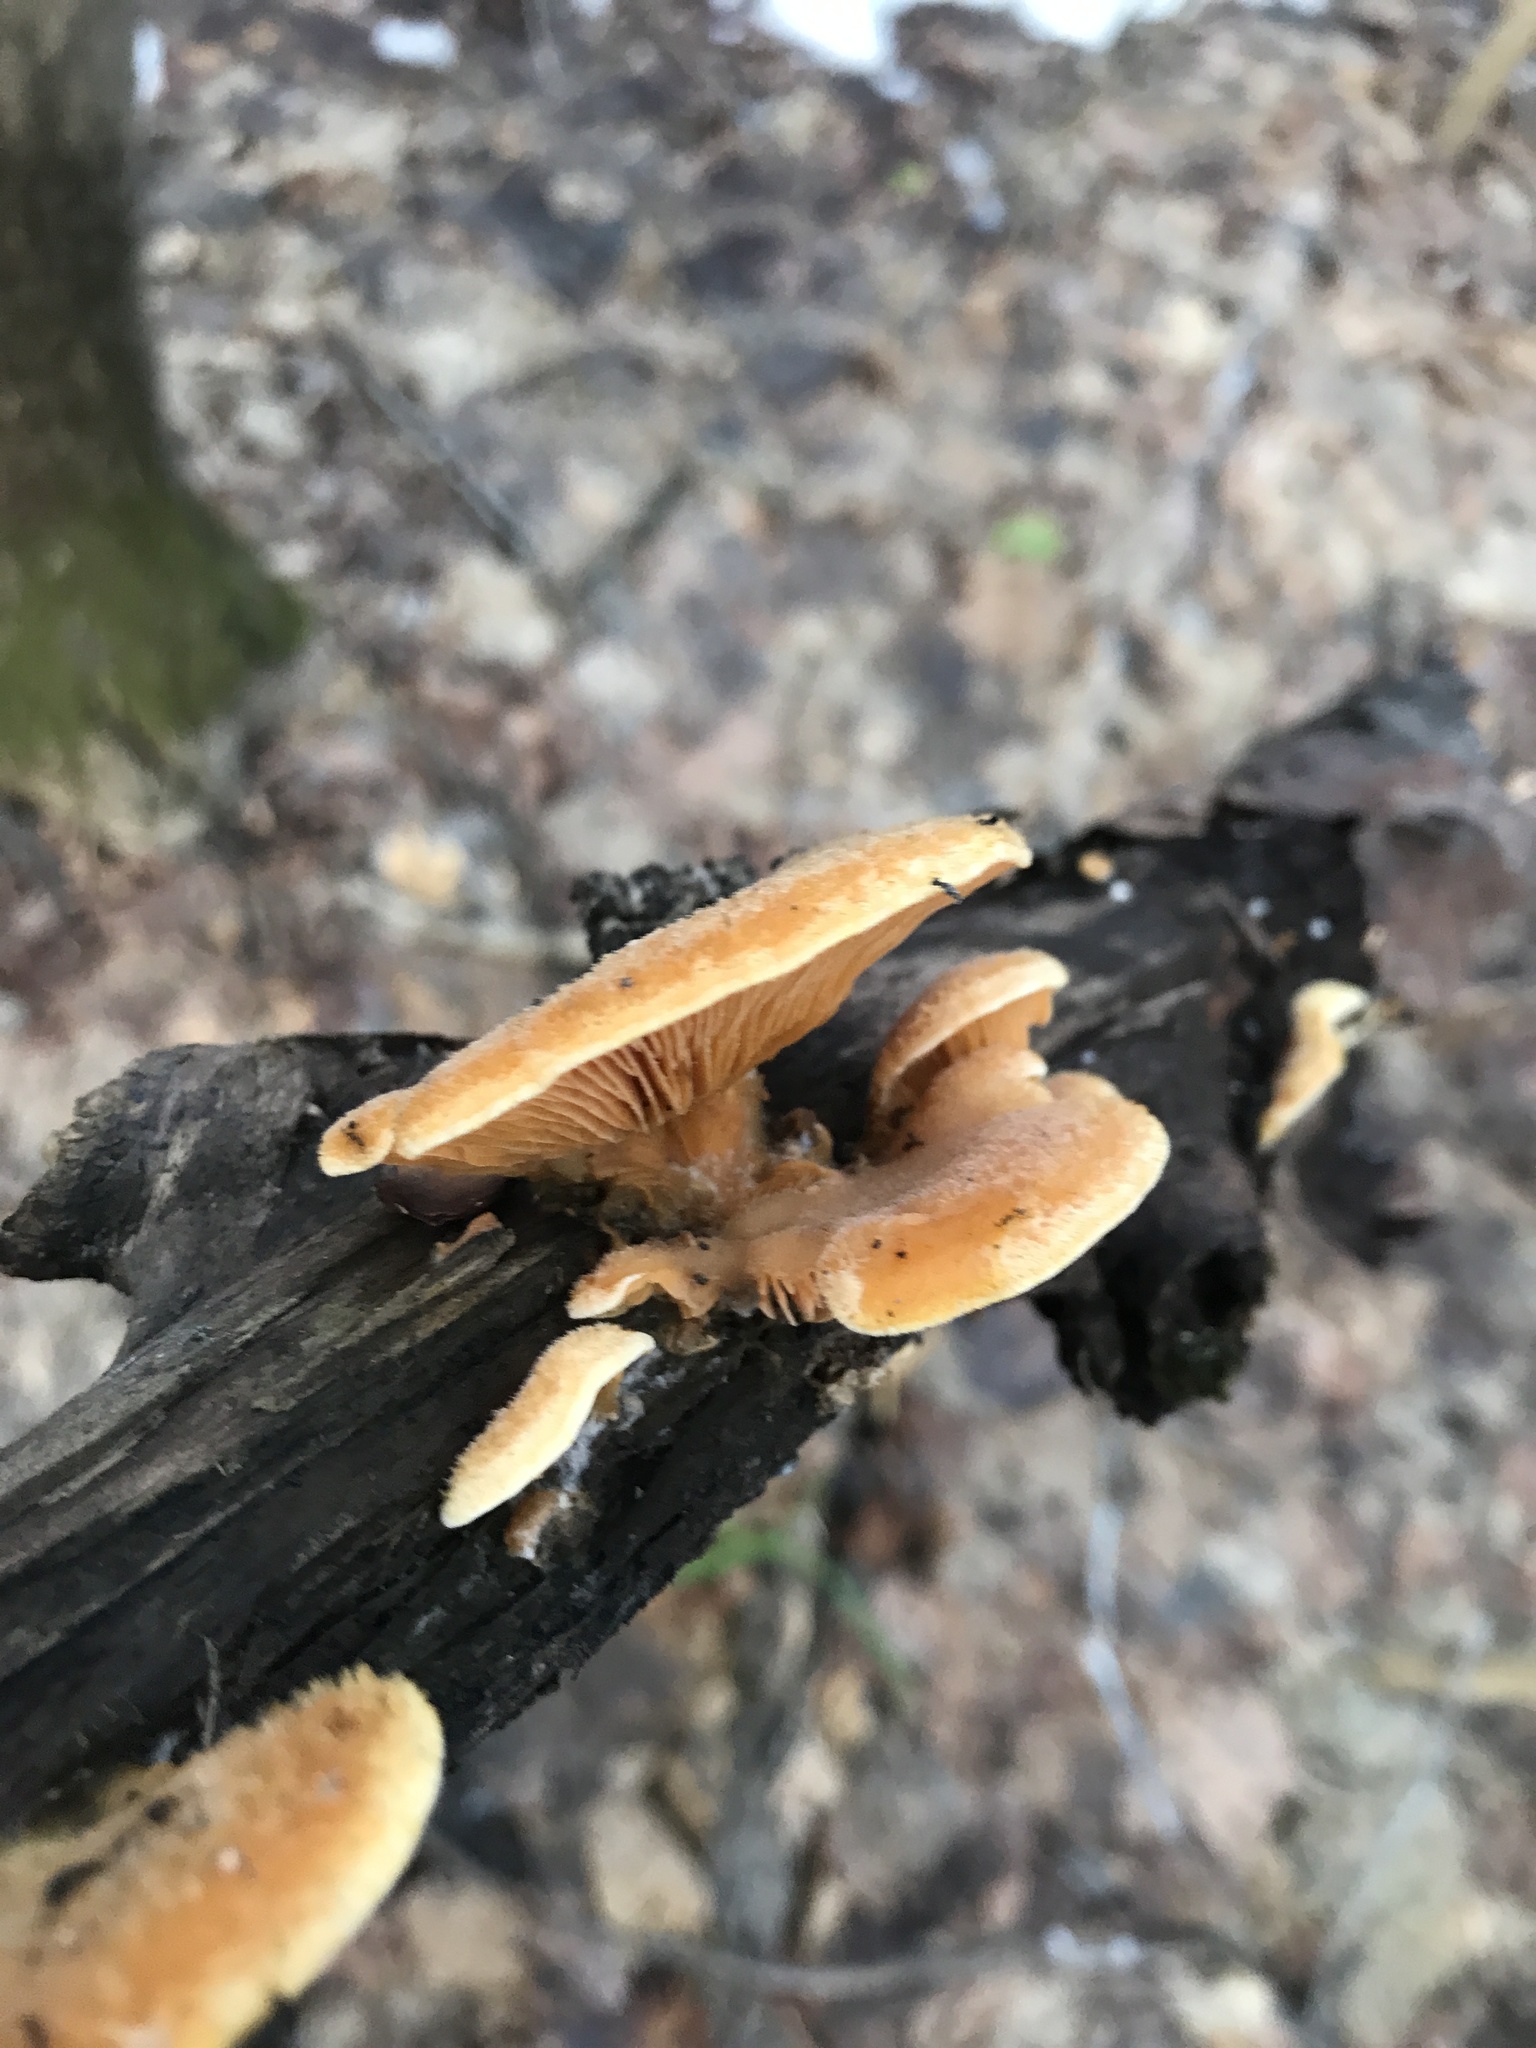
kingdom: Fungi
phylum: Basidiomycota
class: Agaricomycetes
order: Agaricales
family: Phyllotopsidaceae
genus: Phyllotopsis
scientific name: Phyllotopsis nidulans
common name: Orange mock oyster
